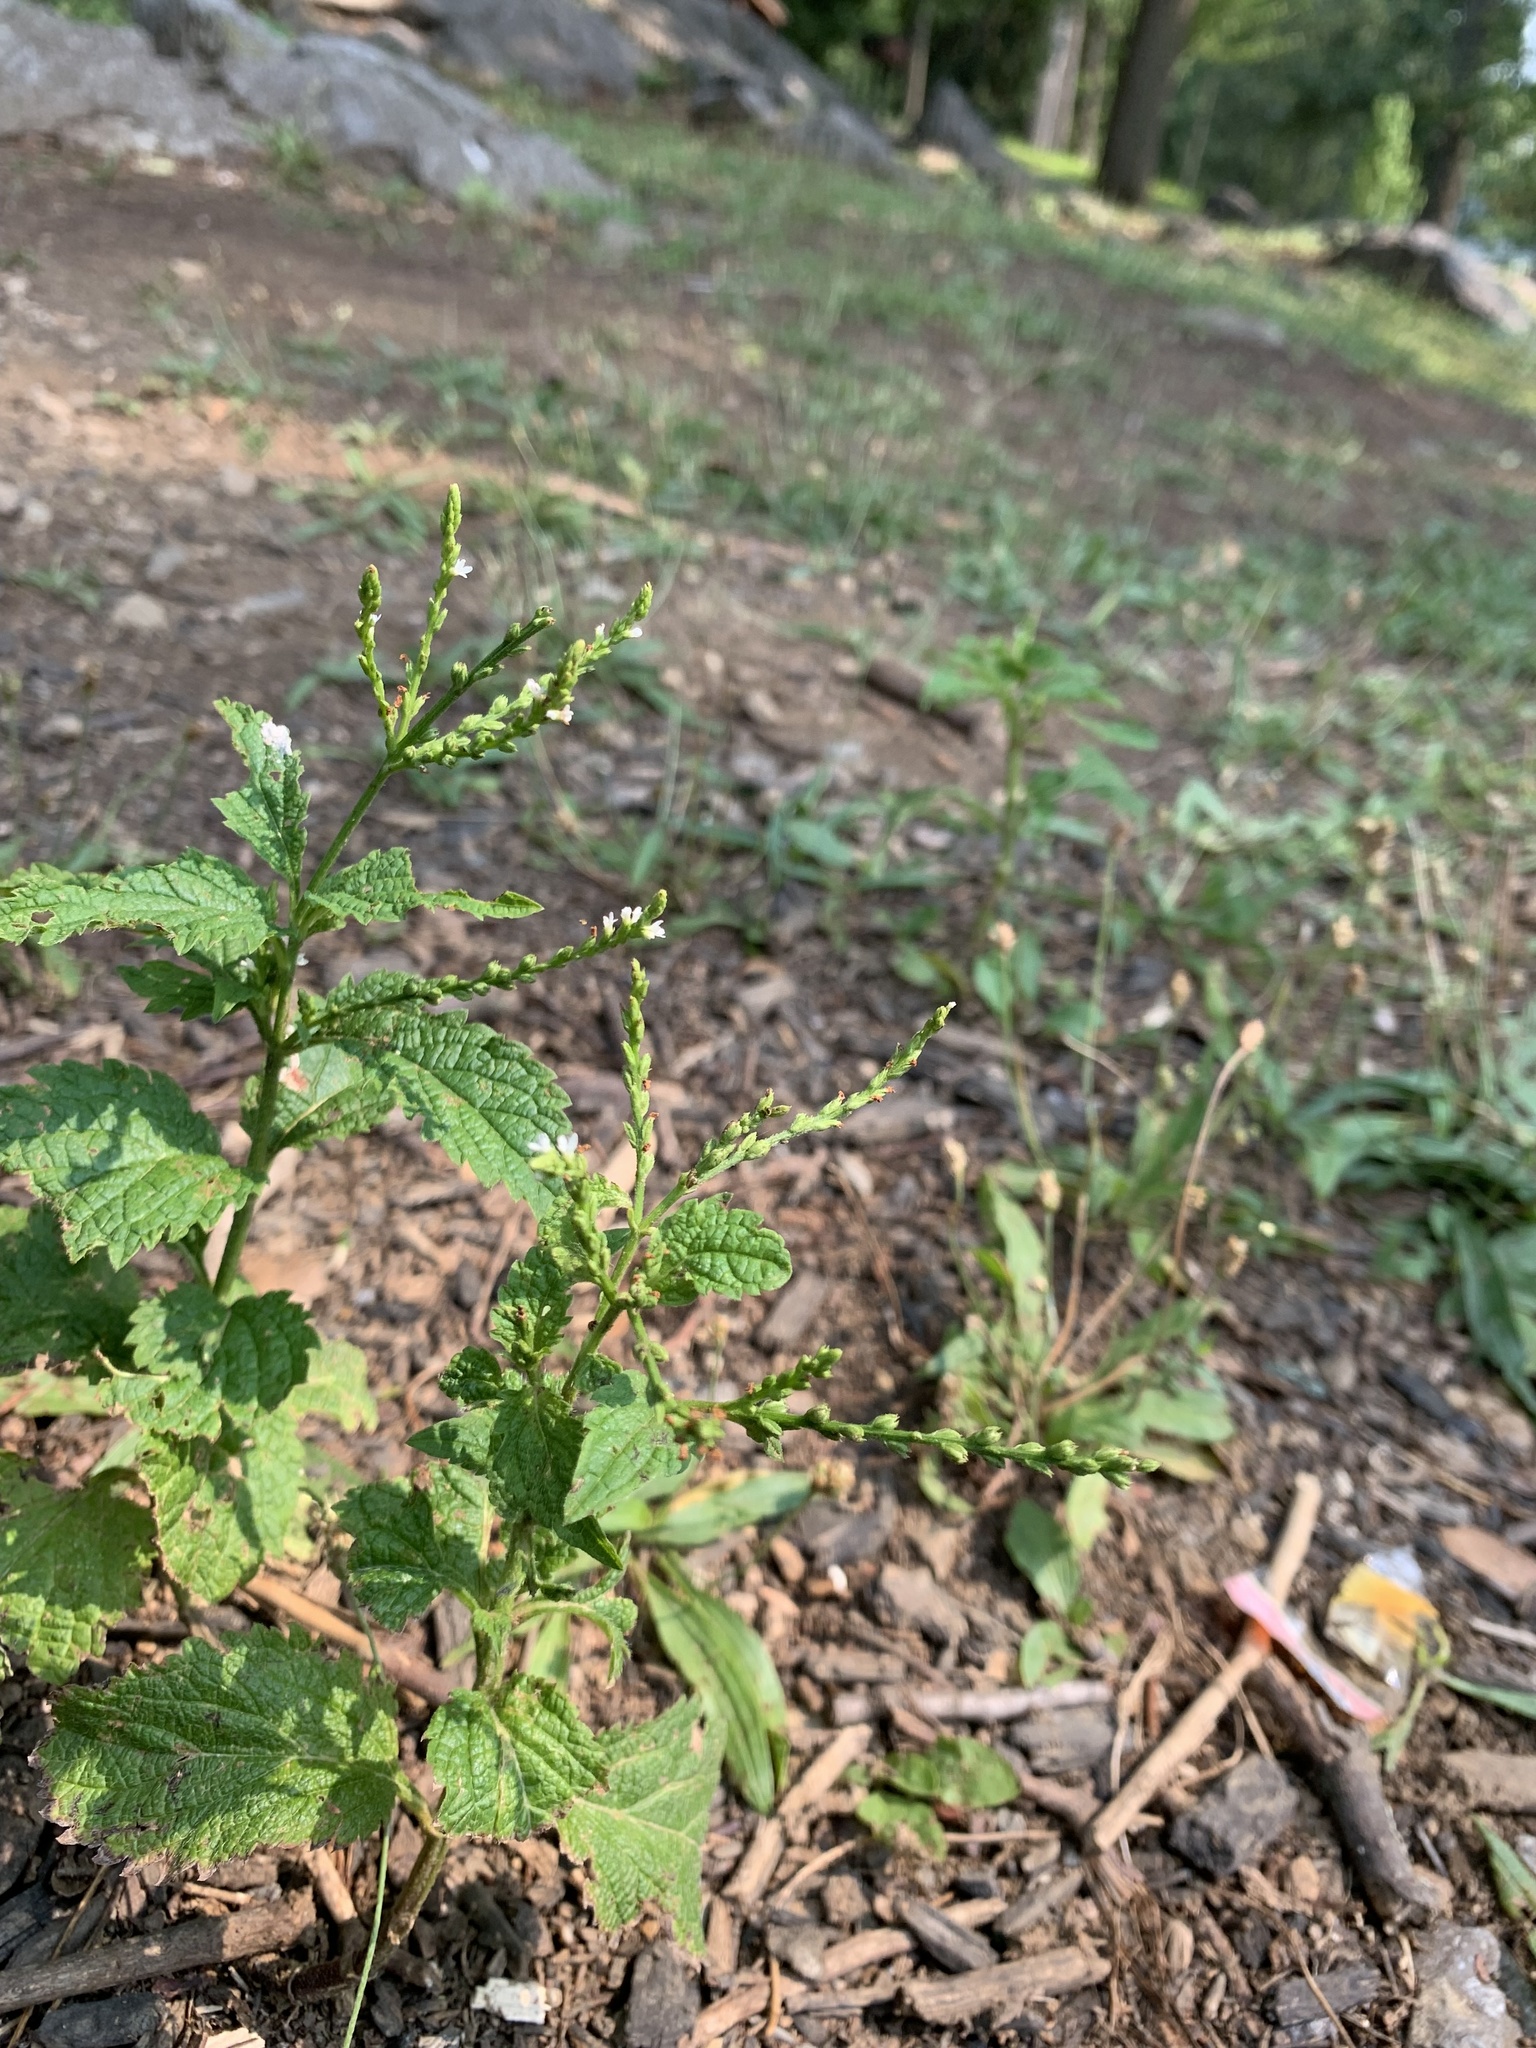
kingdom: Plantae
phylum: Tracheophyta
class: Magnoliopsida
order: Lamiales
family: Verbenaceae
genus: Verbena
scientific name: Verbena urticifolia
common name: Nettle-leaved vervain
